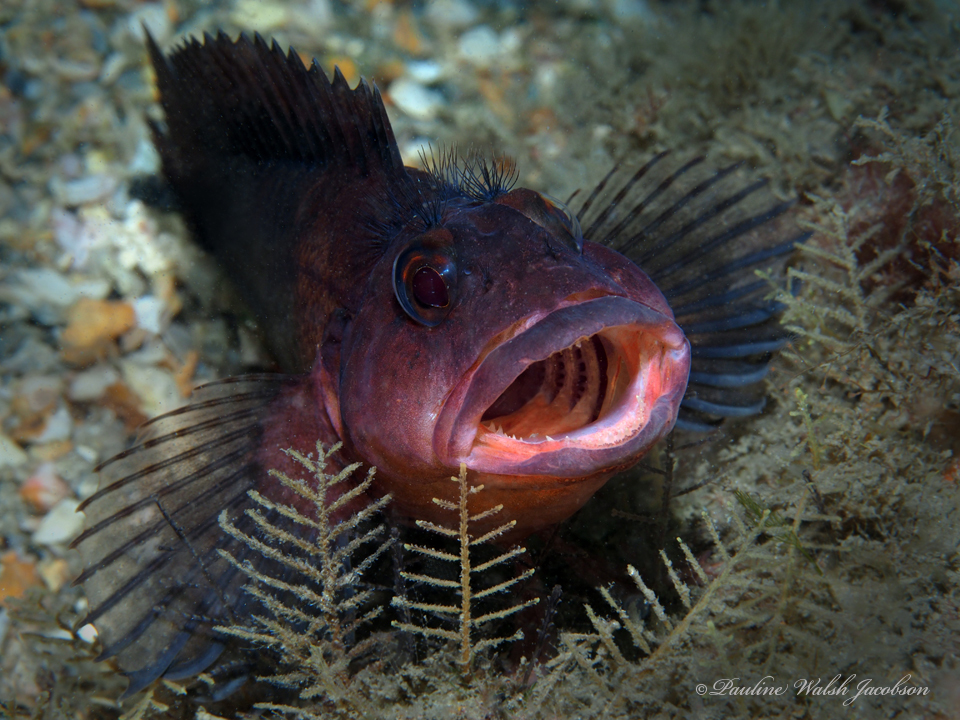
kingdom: Animalia
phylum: Chordata
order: Perciformes
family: Labrisomidae
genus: Labrisomus
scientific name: Labrisomus conditus
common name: Masquerader hairy blenny
